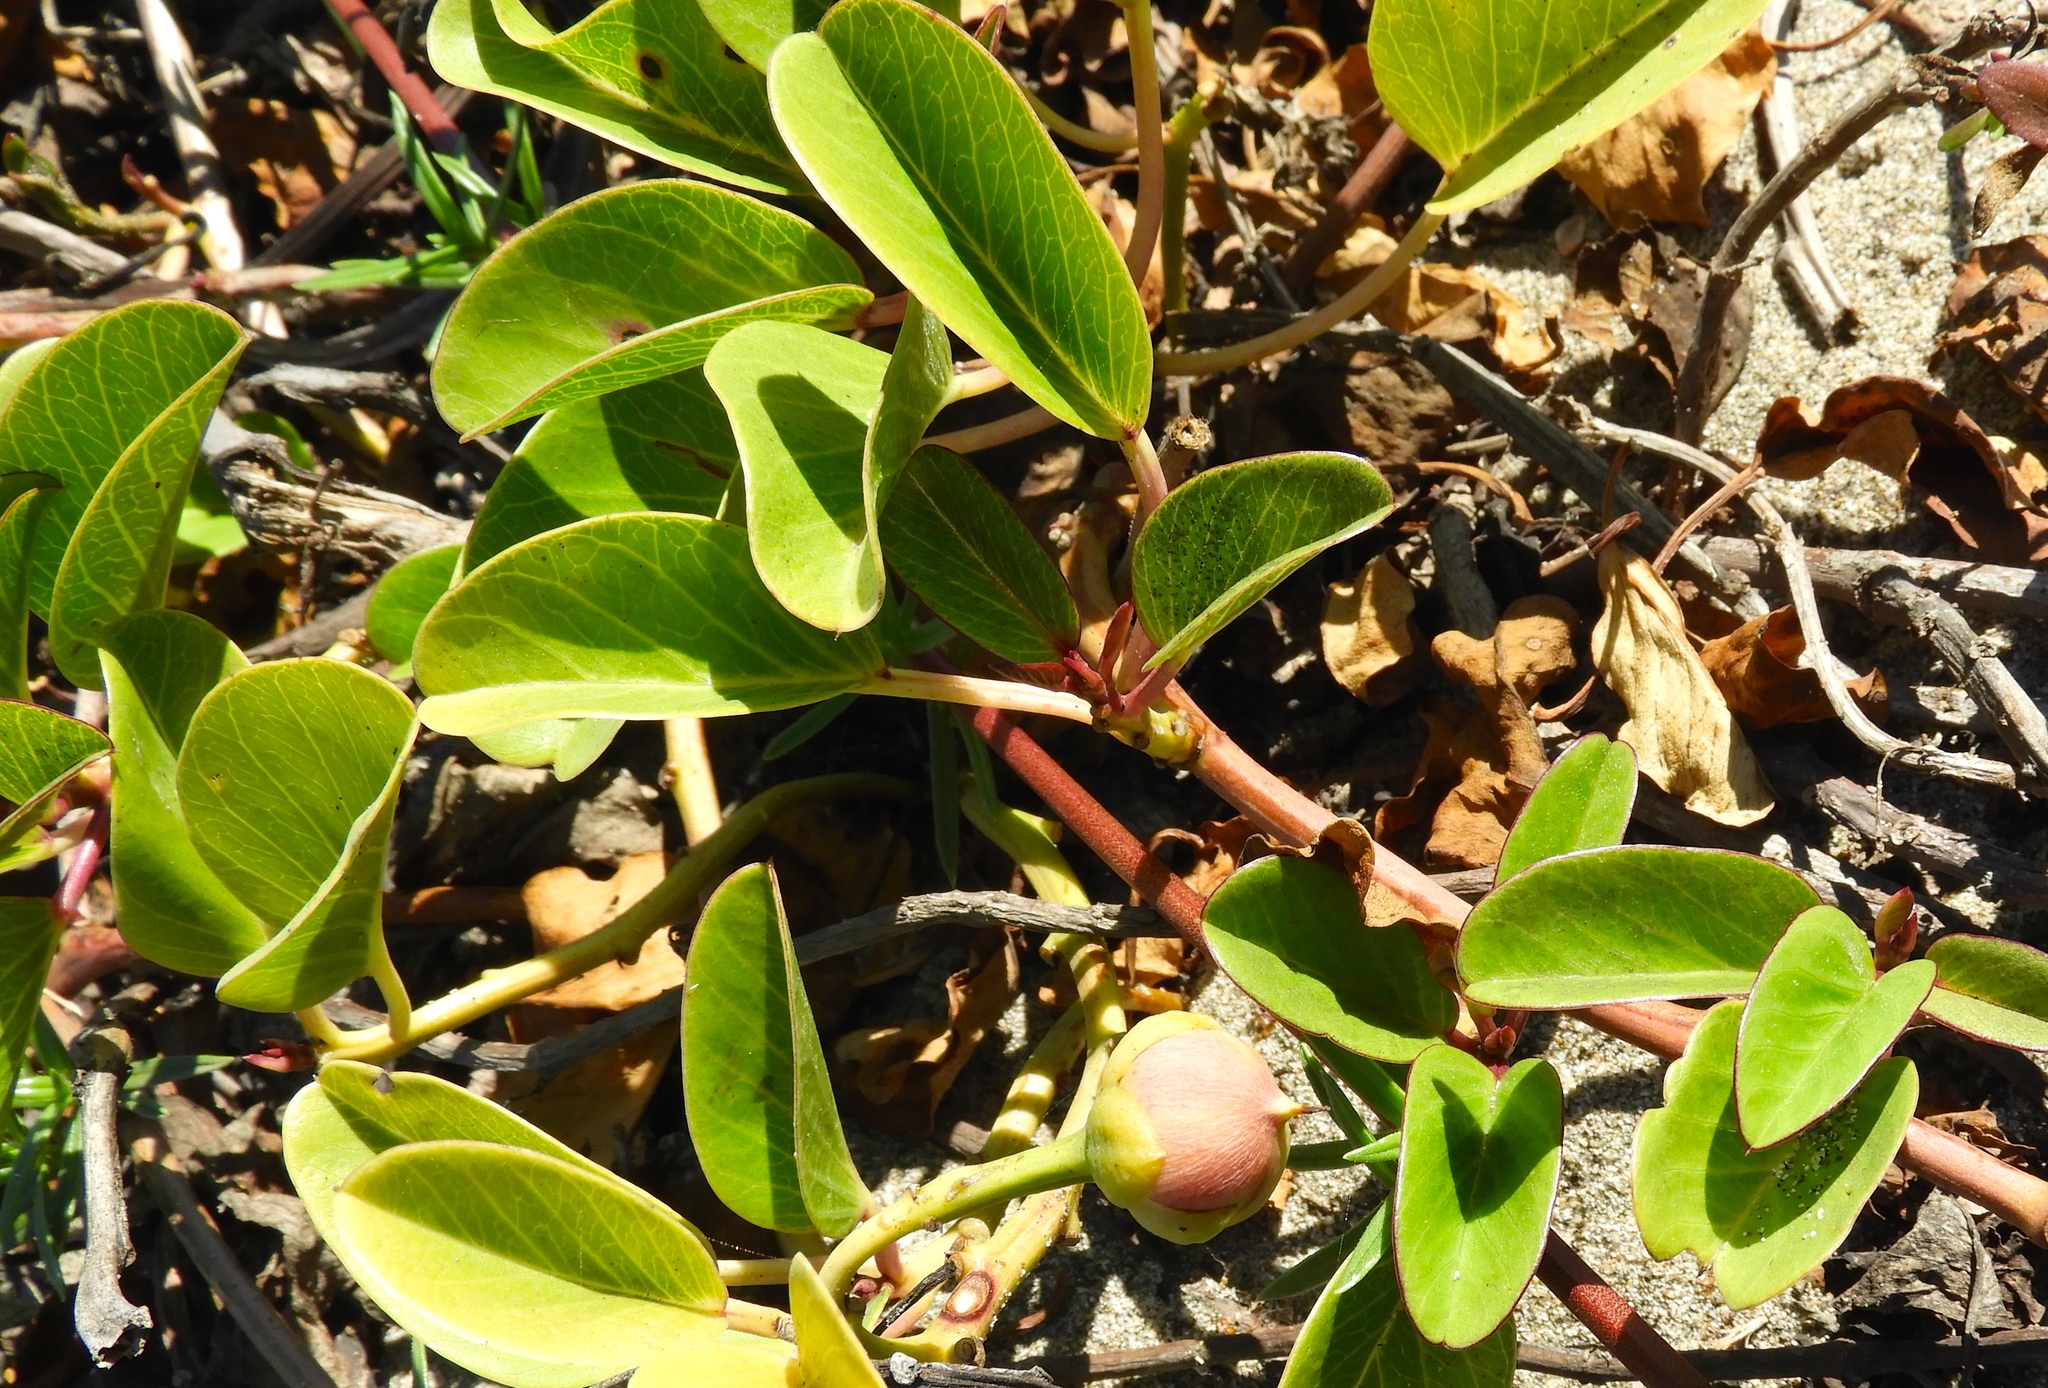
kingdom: Plantae
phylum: Tracheophyta
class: Magnoliopsida
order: Solanales
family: Convolvulaceae
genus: Ipomoea
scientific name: Ipomoea pes-caprae
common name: Beach morning glory
